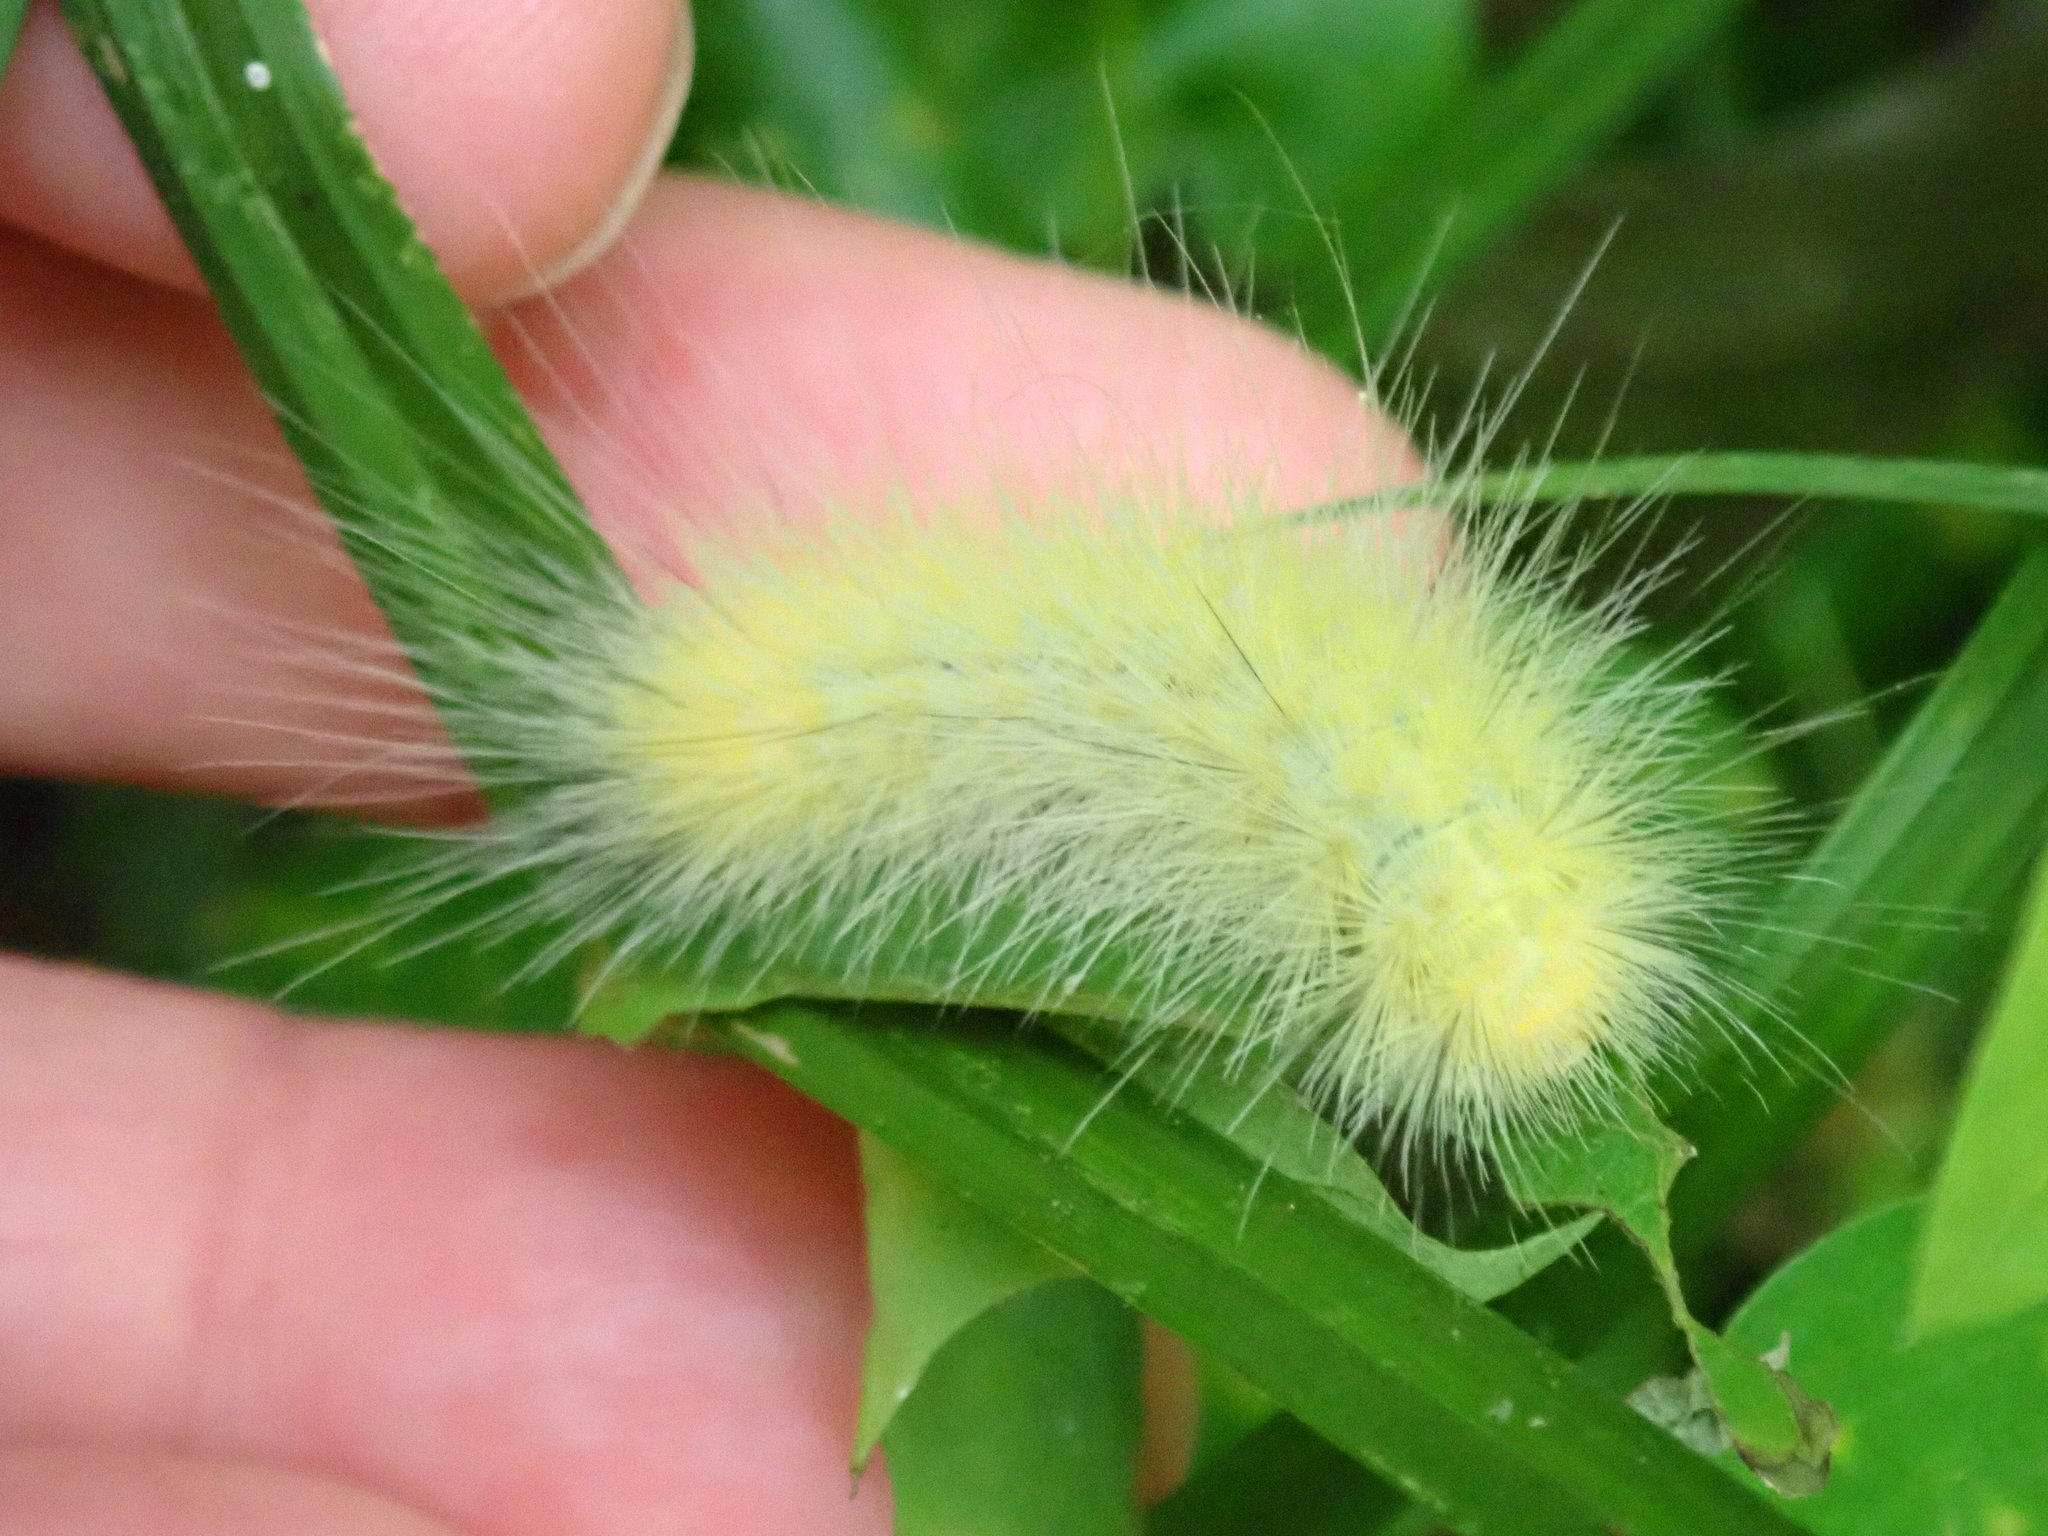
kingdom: Animalia
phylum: Arthropoda
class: Insecta
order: Lepidoptera
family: Erebidae
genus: Spilosoma
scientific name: Spilosoma virginica
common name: Virginia tiger moth
